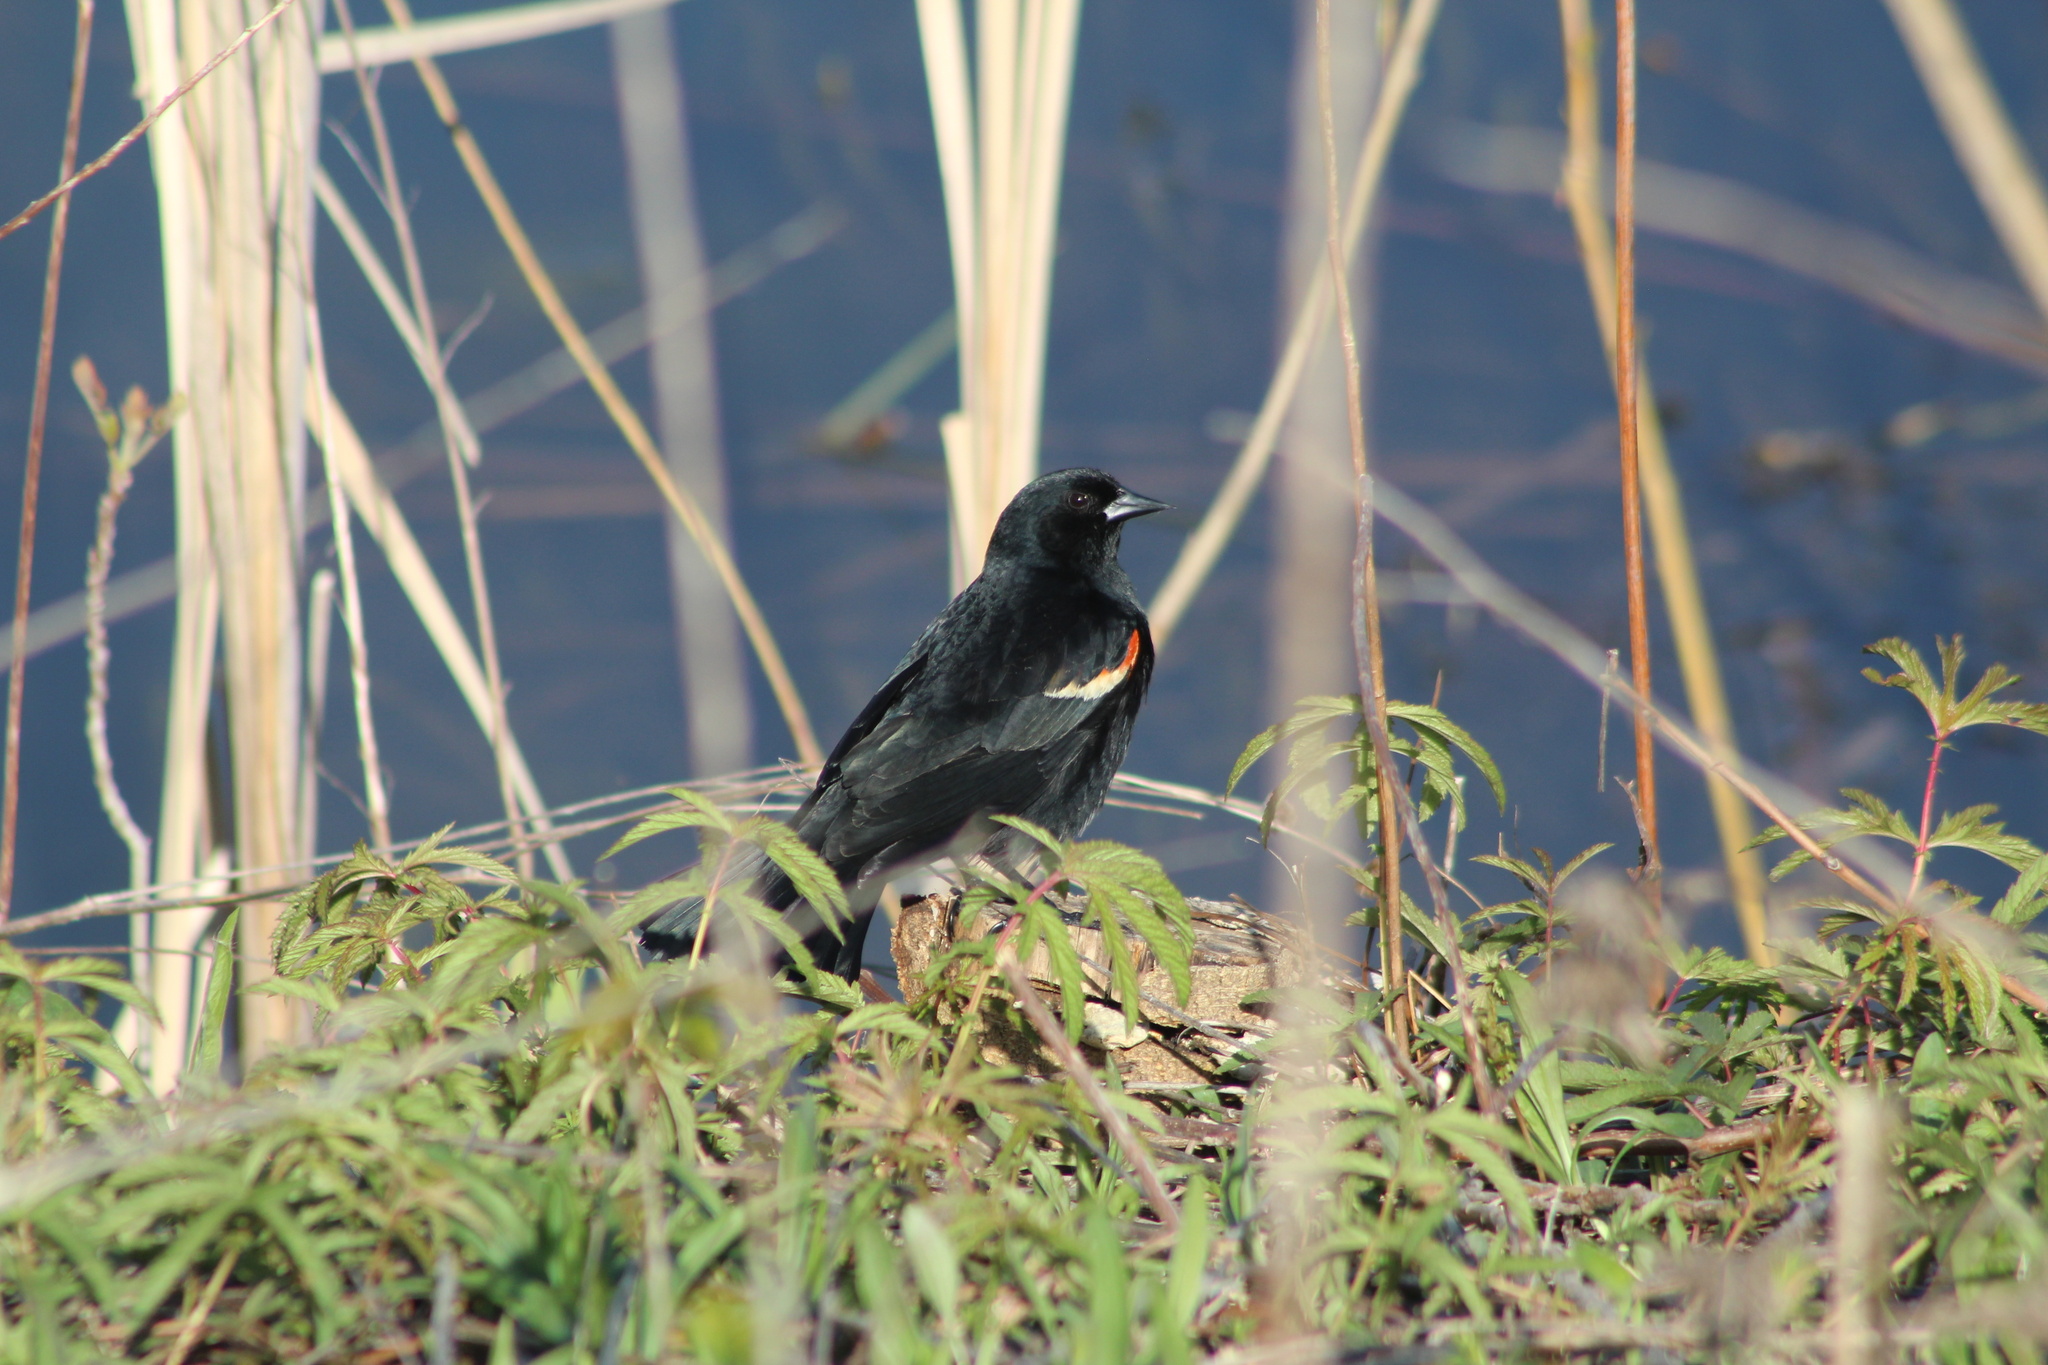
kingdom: Animalia
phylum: Chordata
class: Aves
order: Passeriformes
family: Icteridae
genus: Agelaius
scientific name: Agelaius phoeniceus
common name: Red-winged blackbird
